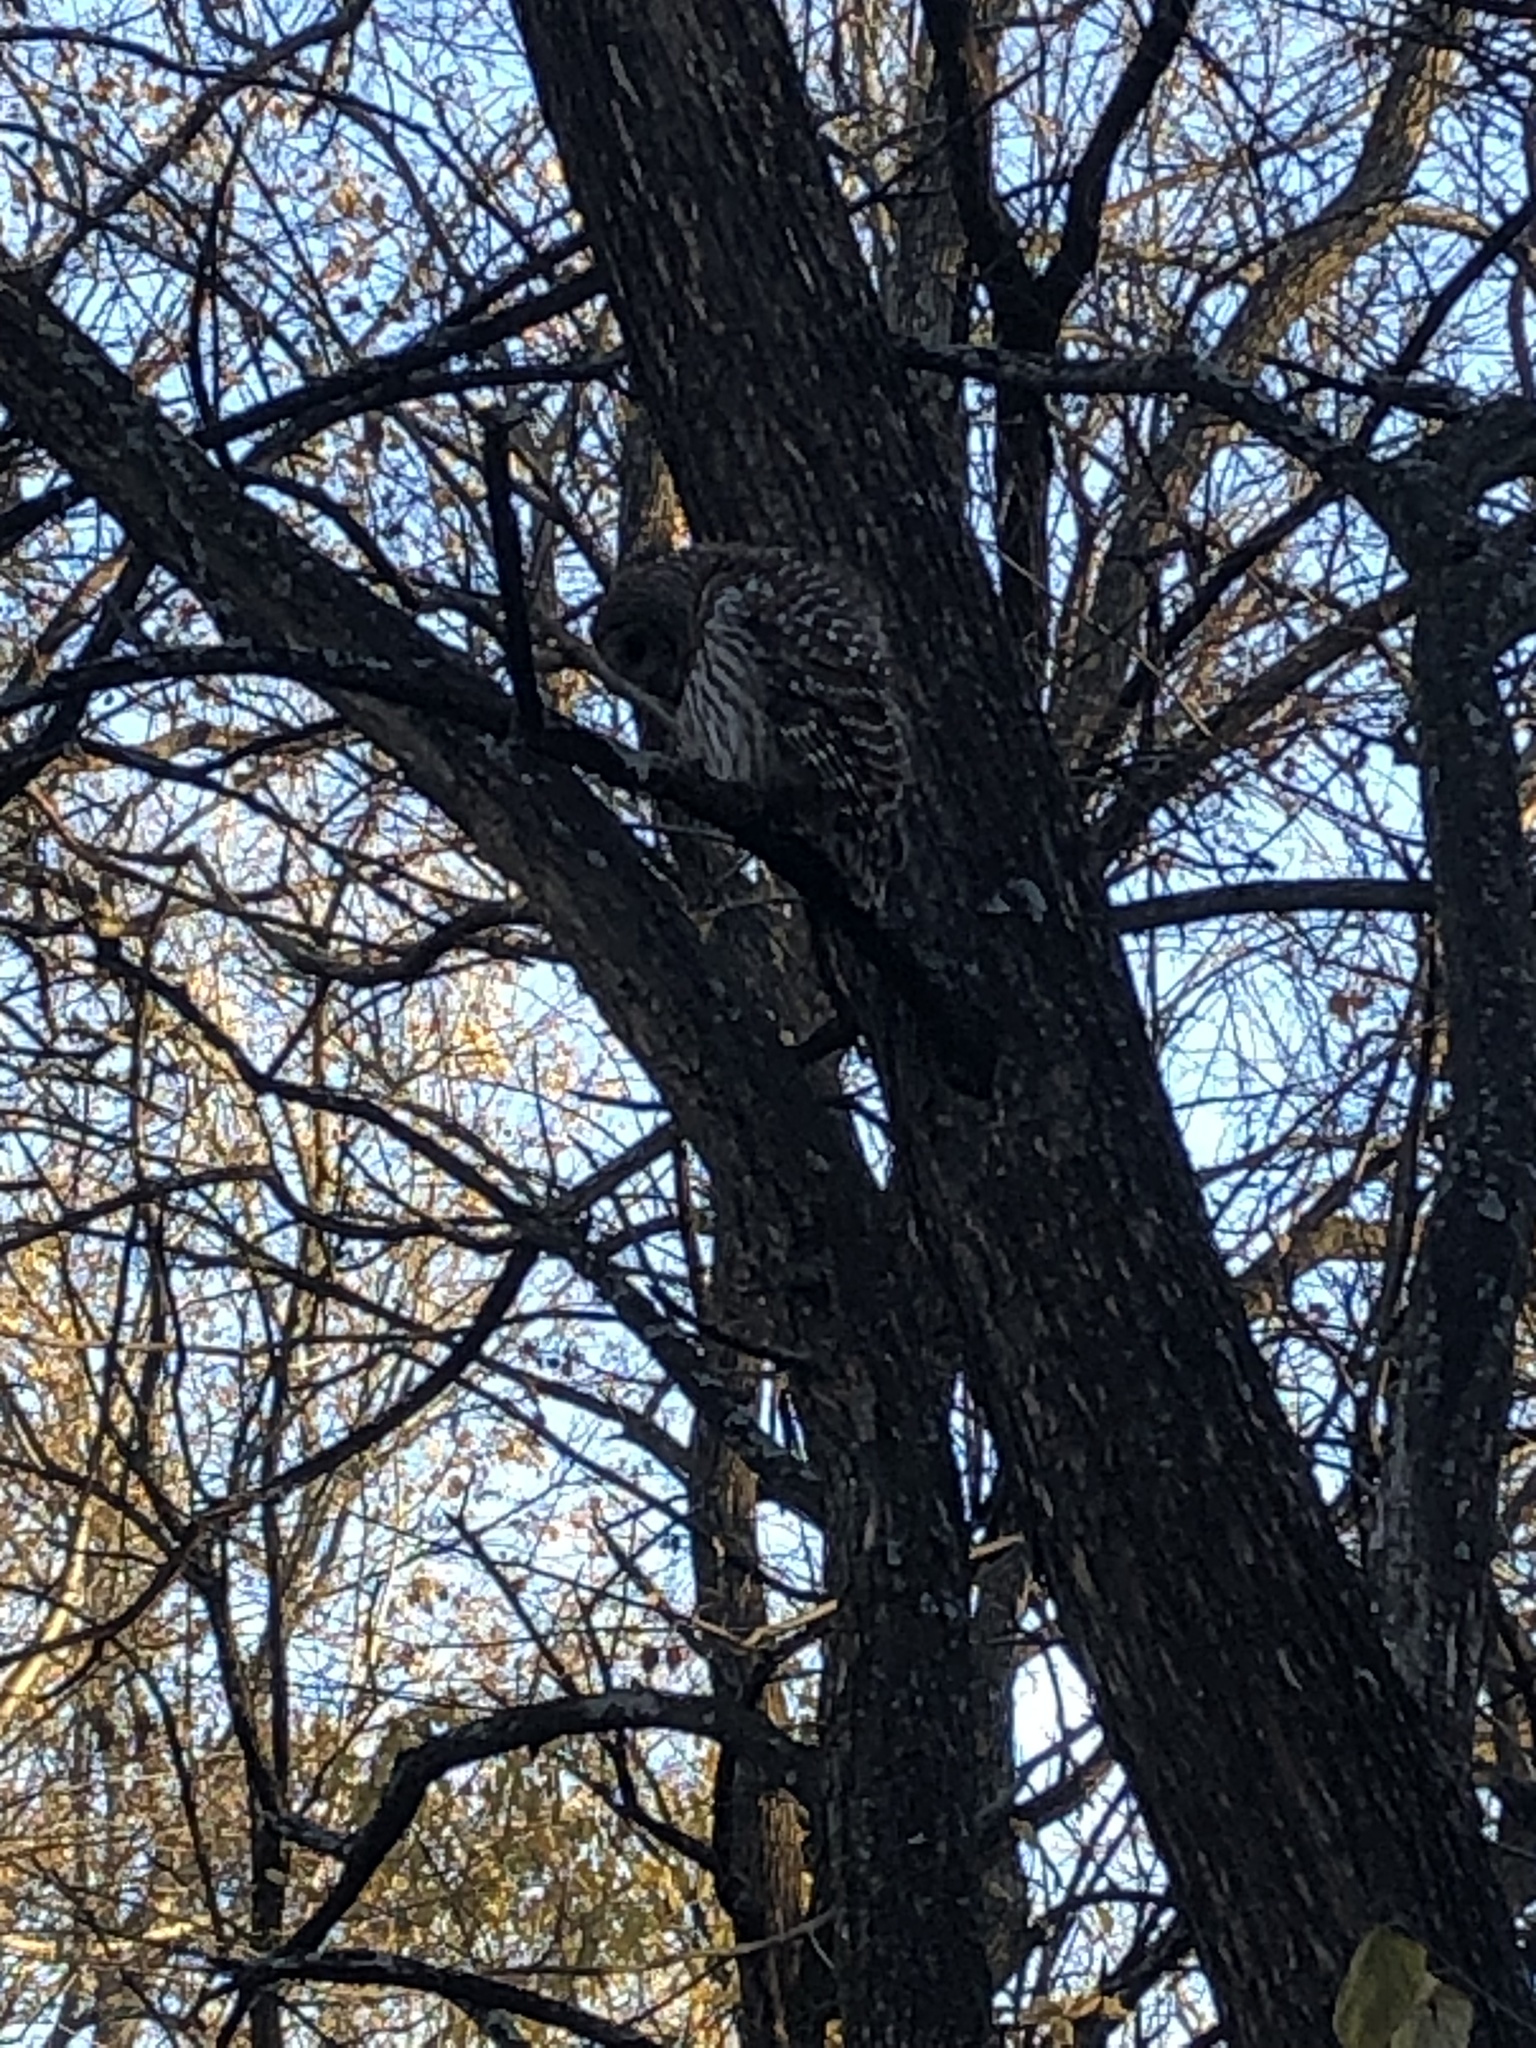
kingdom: Animalia
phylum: Chordata
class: Aves
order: Strigiformes
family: Strigidae
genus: Strix
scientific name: Strix varia
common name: Barred owl
